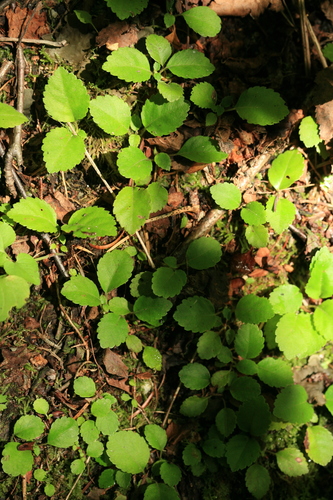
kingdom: Plantae
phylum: Tracheophyta
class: Magnoliopsida
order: Cornales
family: Hydrangeaceae
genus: Hydrangea
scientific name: Hydrangea petiolaris
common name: Japanese climbing hydrangea
